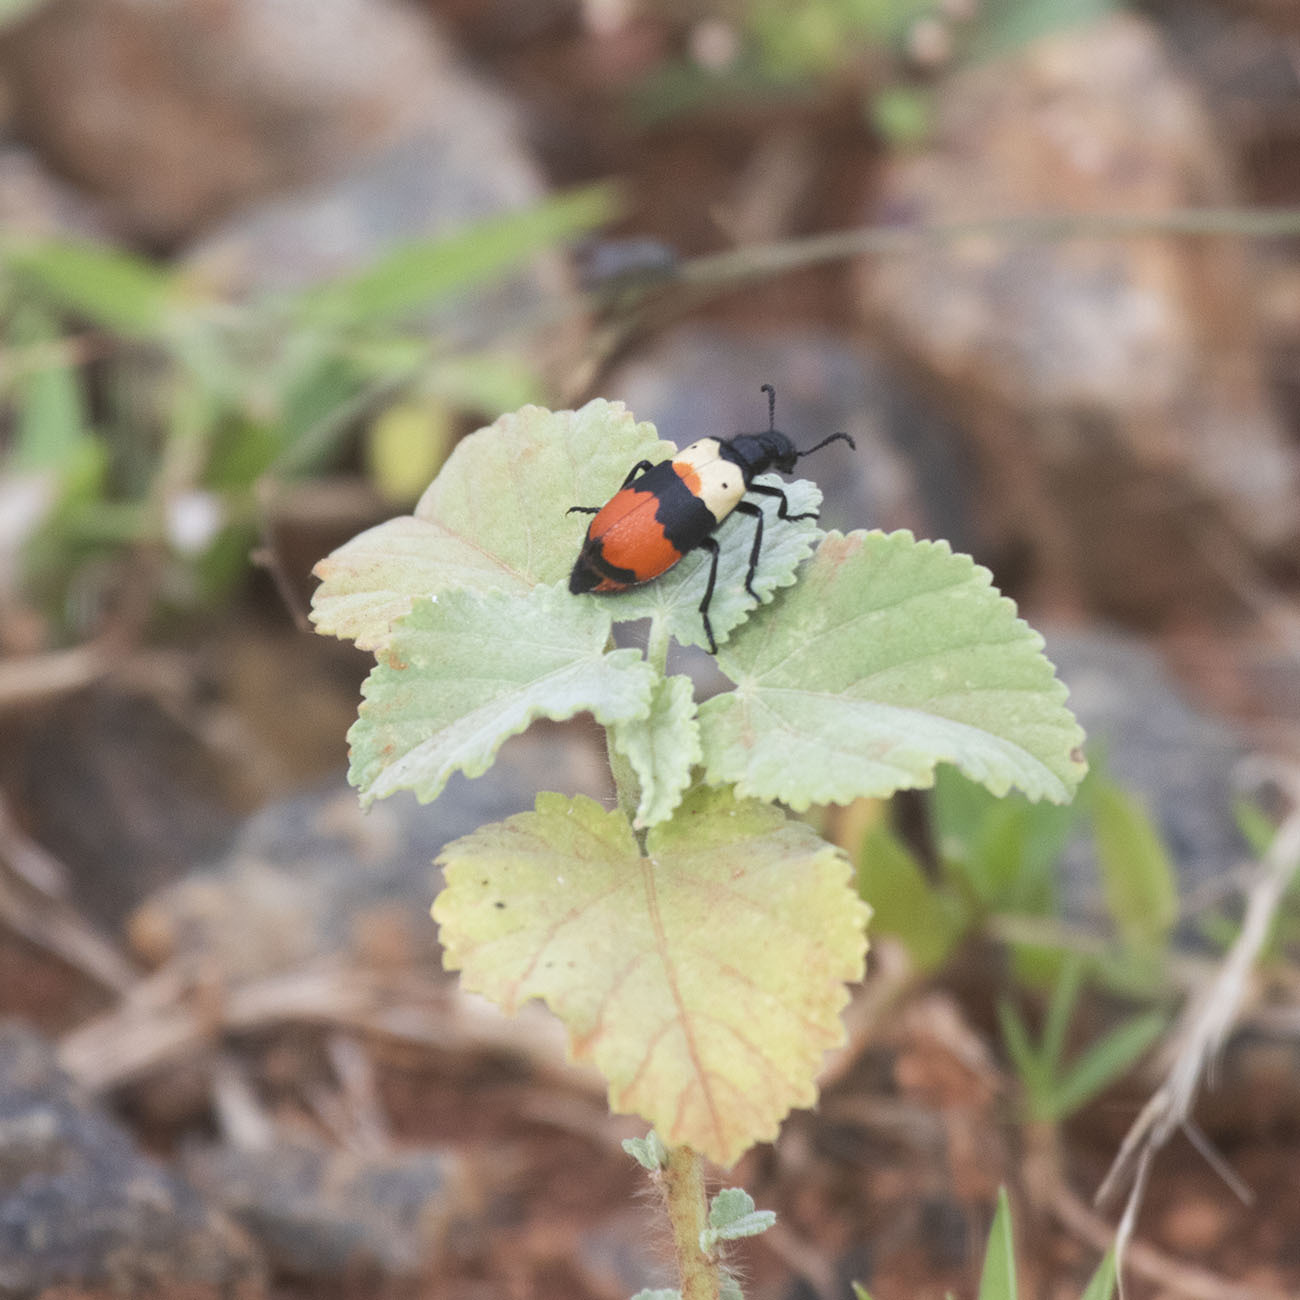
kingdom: Animalia
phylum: Arthropoda
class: Insecta
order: Coleoptera
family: Meloidae
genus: Hycleus
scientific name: Hycleus
